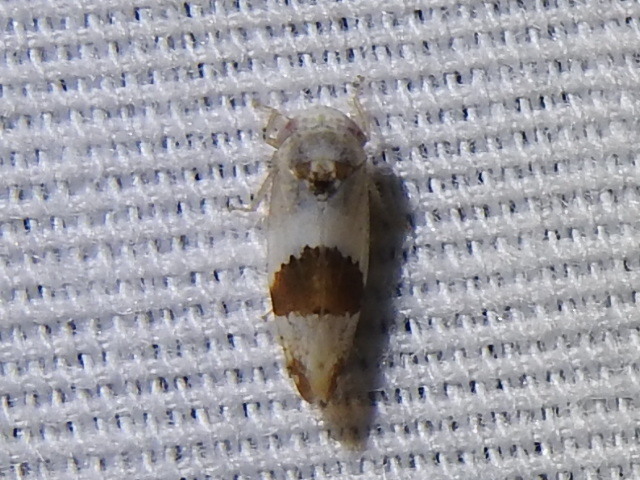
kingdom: Animalia
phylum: Arthropoda
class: Insecta
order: Hemiptera
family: Cicadellidae
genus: Norvellina
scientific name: Norvellina seminuda
